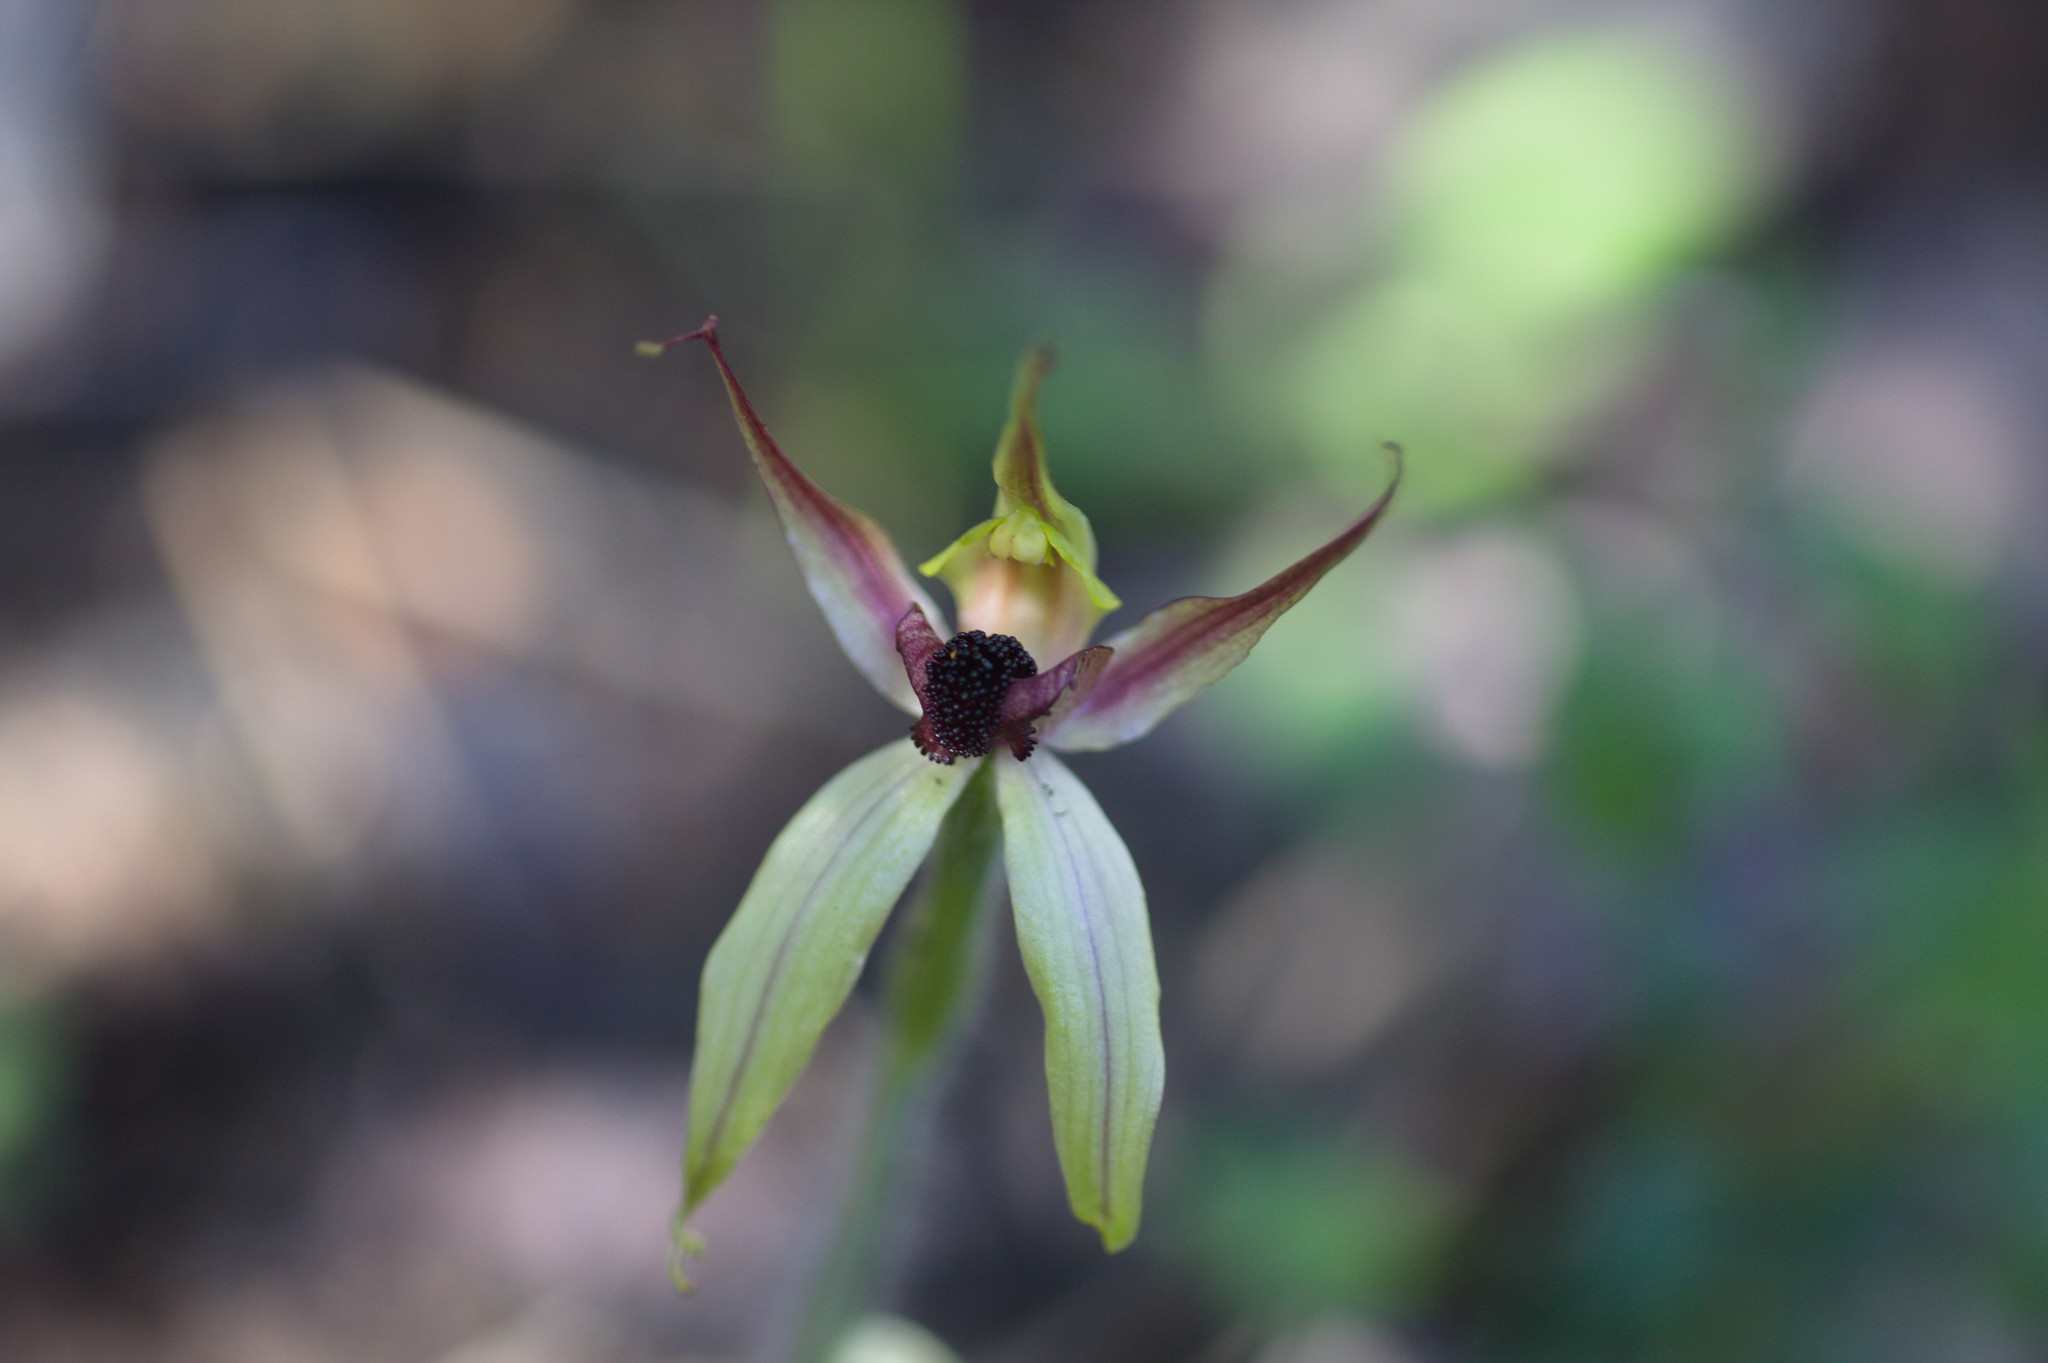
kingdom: Plantae
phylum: Tracheophyta
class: Liliopsida
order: Asparagales
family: Orchidaceae
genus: Caladenia
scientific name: Caladenia macrostylis
